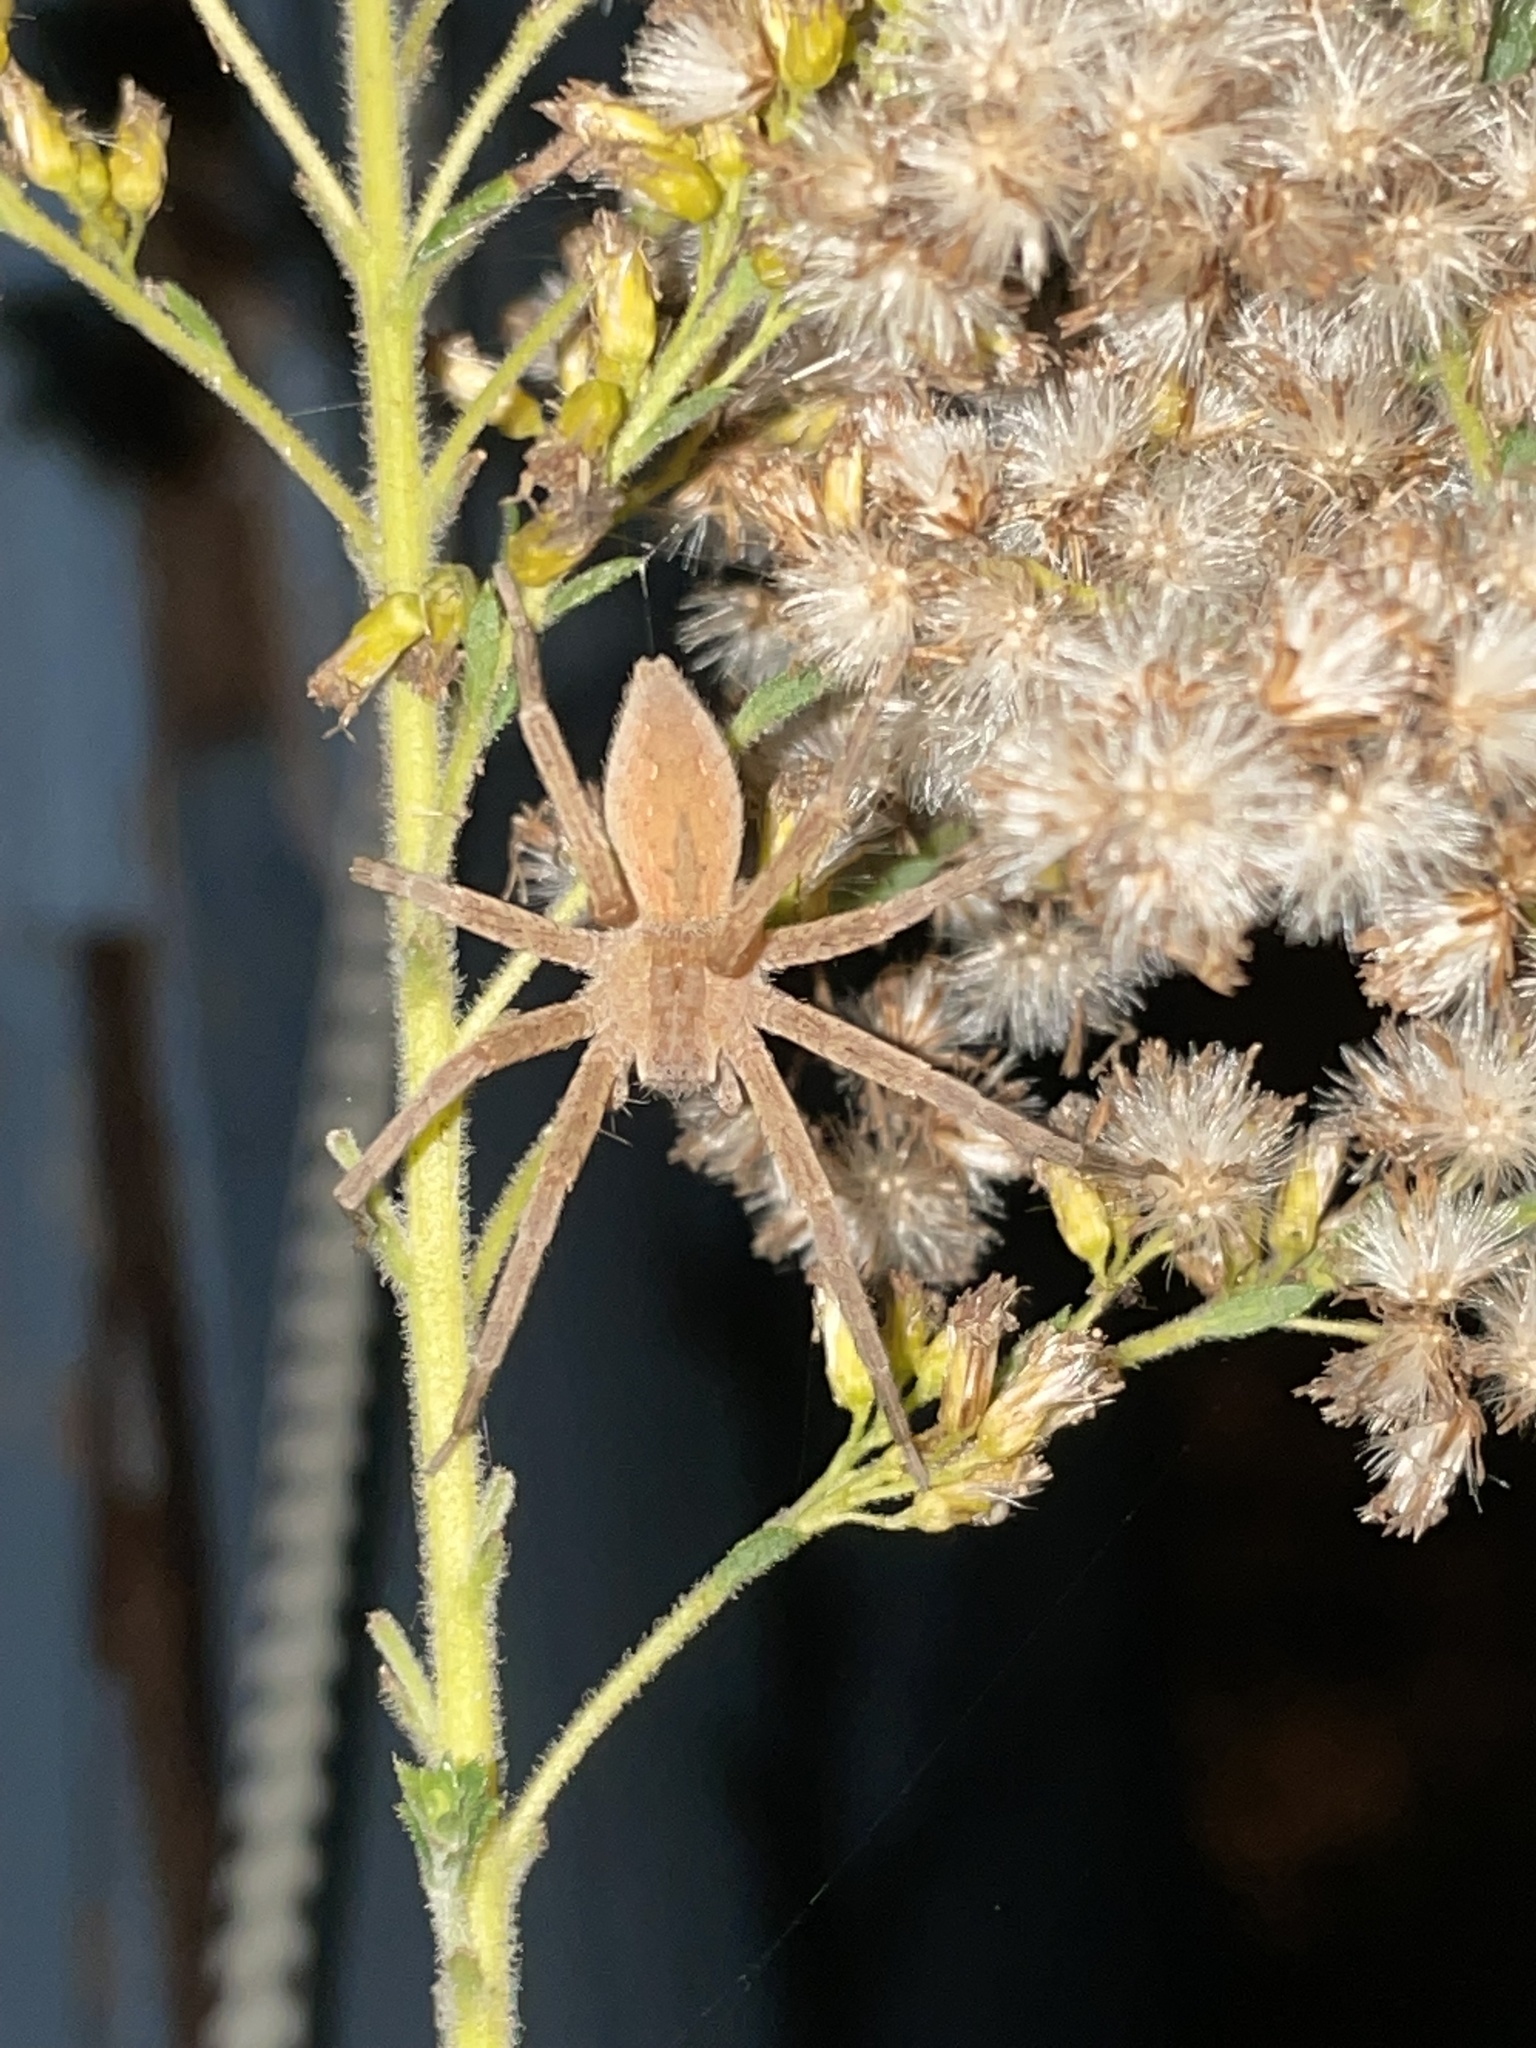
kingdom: Animalia
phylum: Arthropoda
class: Arachnida
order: Araneae
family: Pisauridae
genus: Pisaurina
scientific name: Pisaurina mira
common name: American nursery web spider
